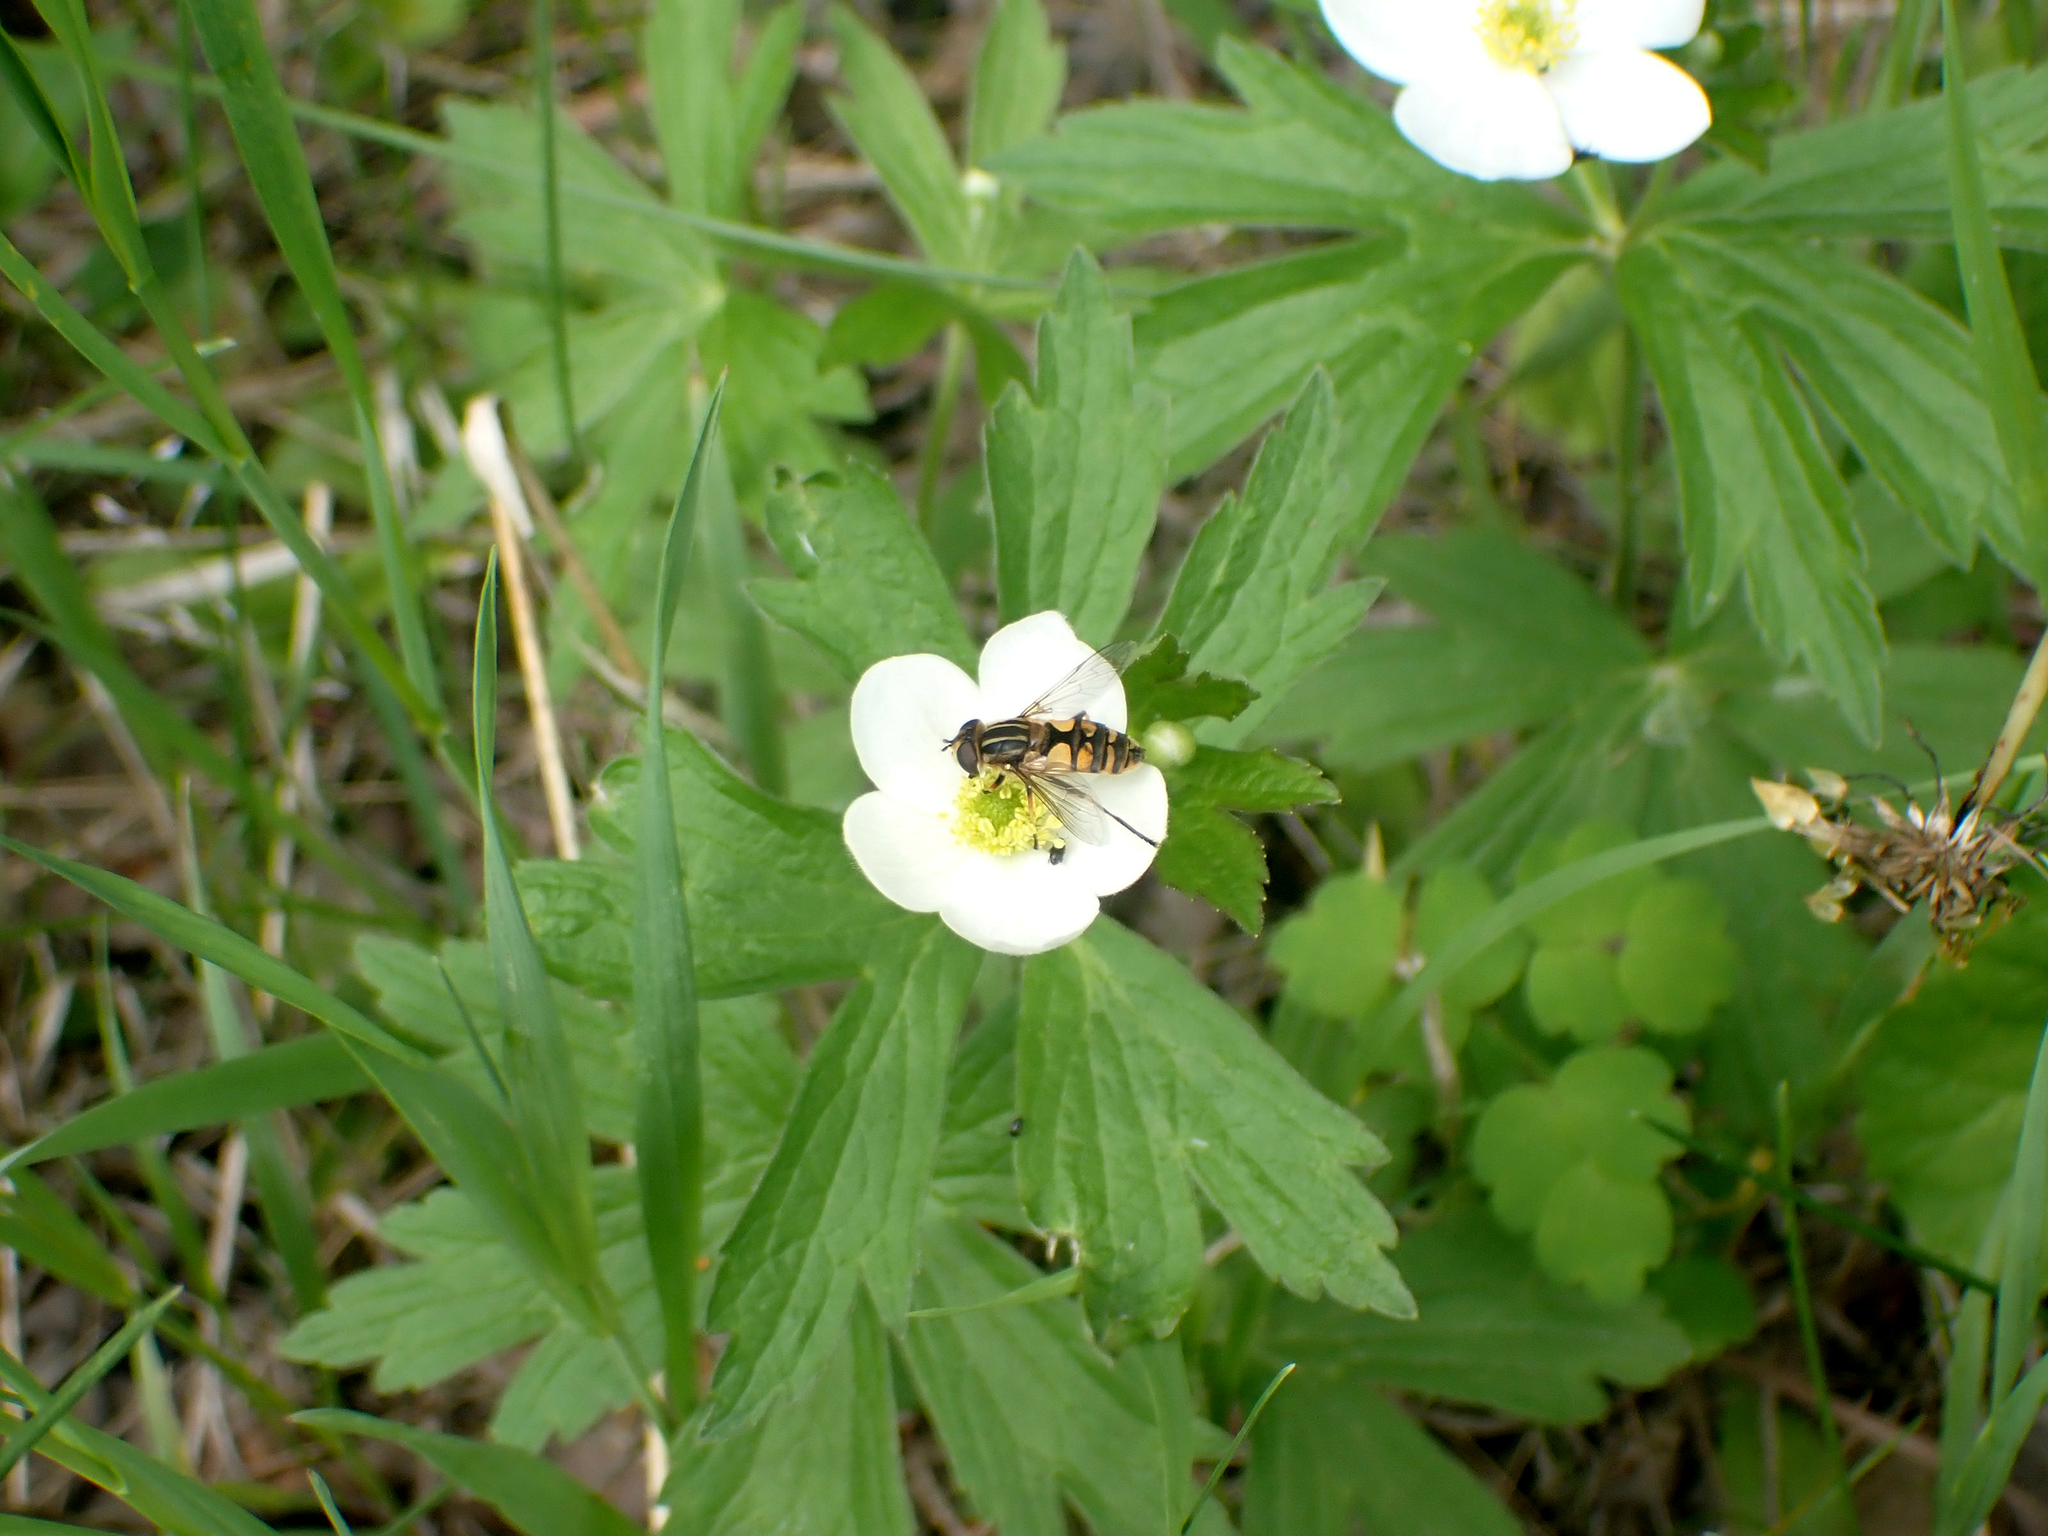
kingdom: Plantae
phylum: Tracheophyta
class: Magnoliopsida
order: Ranunculales
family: Ranunculaceae
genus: Anemonastrum
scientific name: Anemonastrum canadense
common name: Canada anemone
